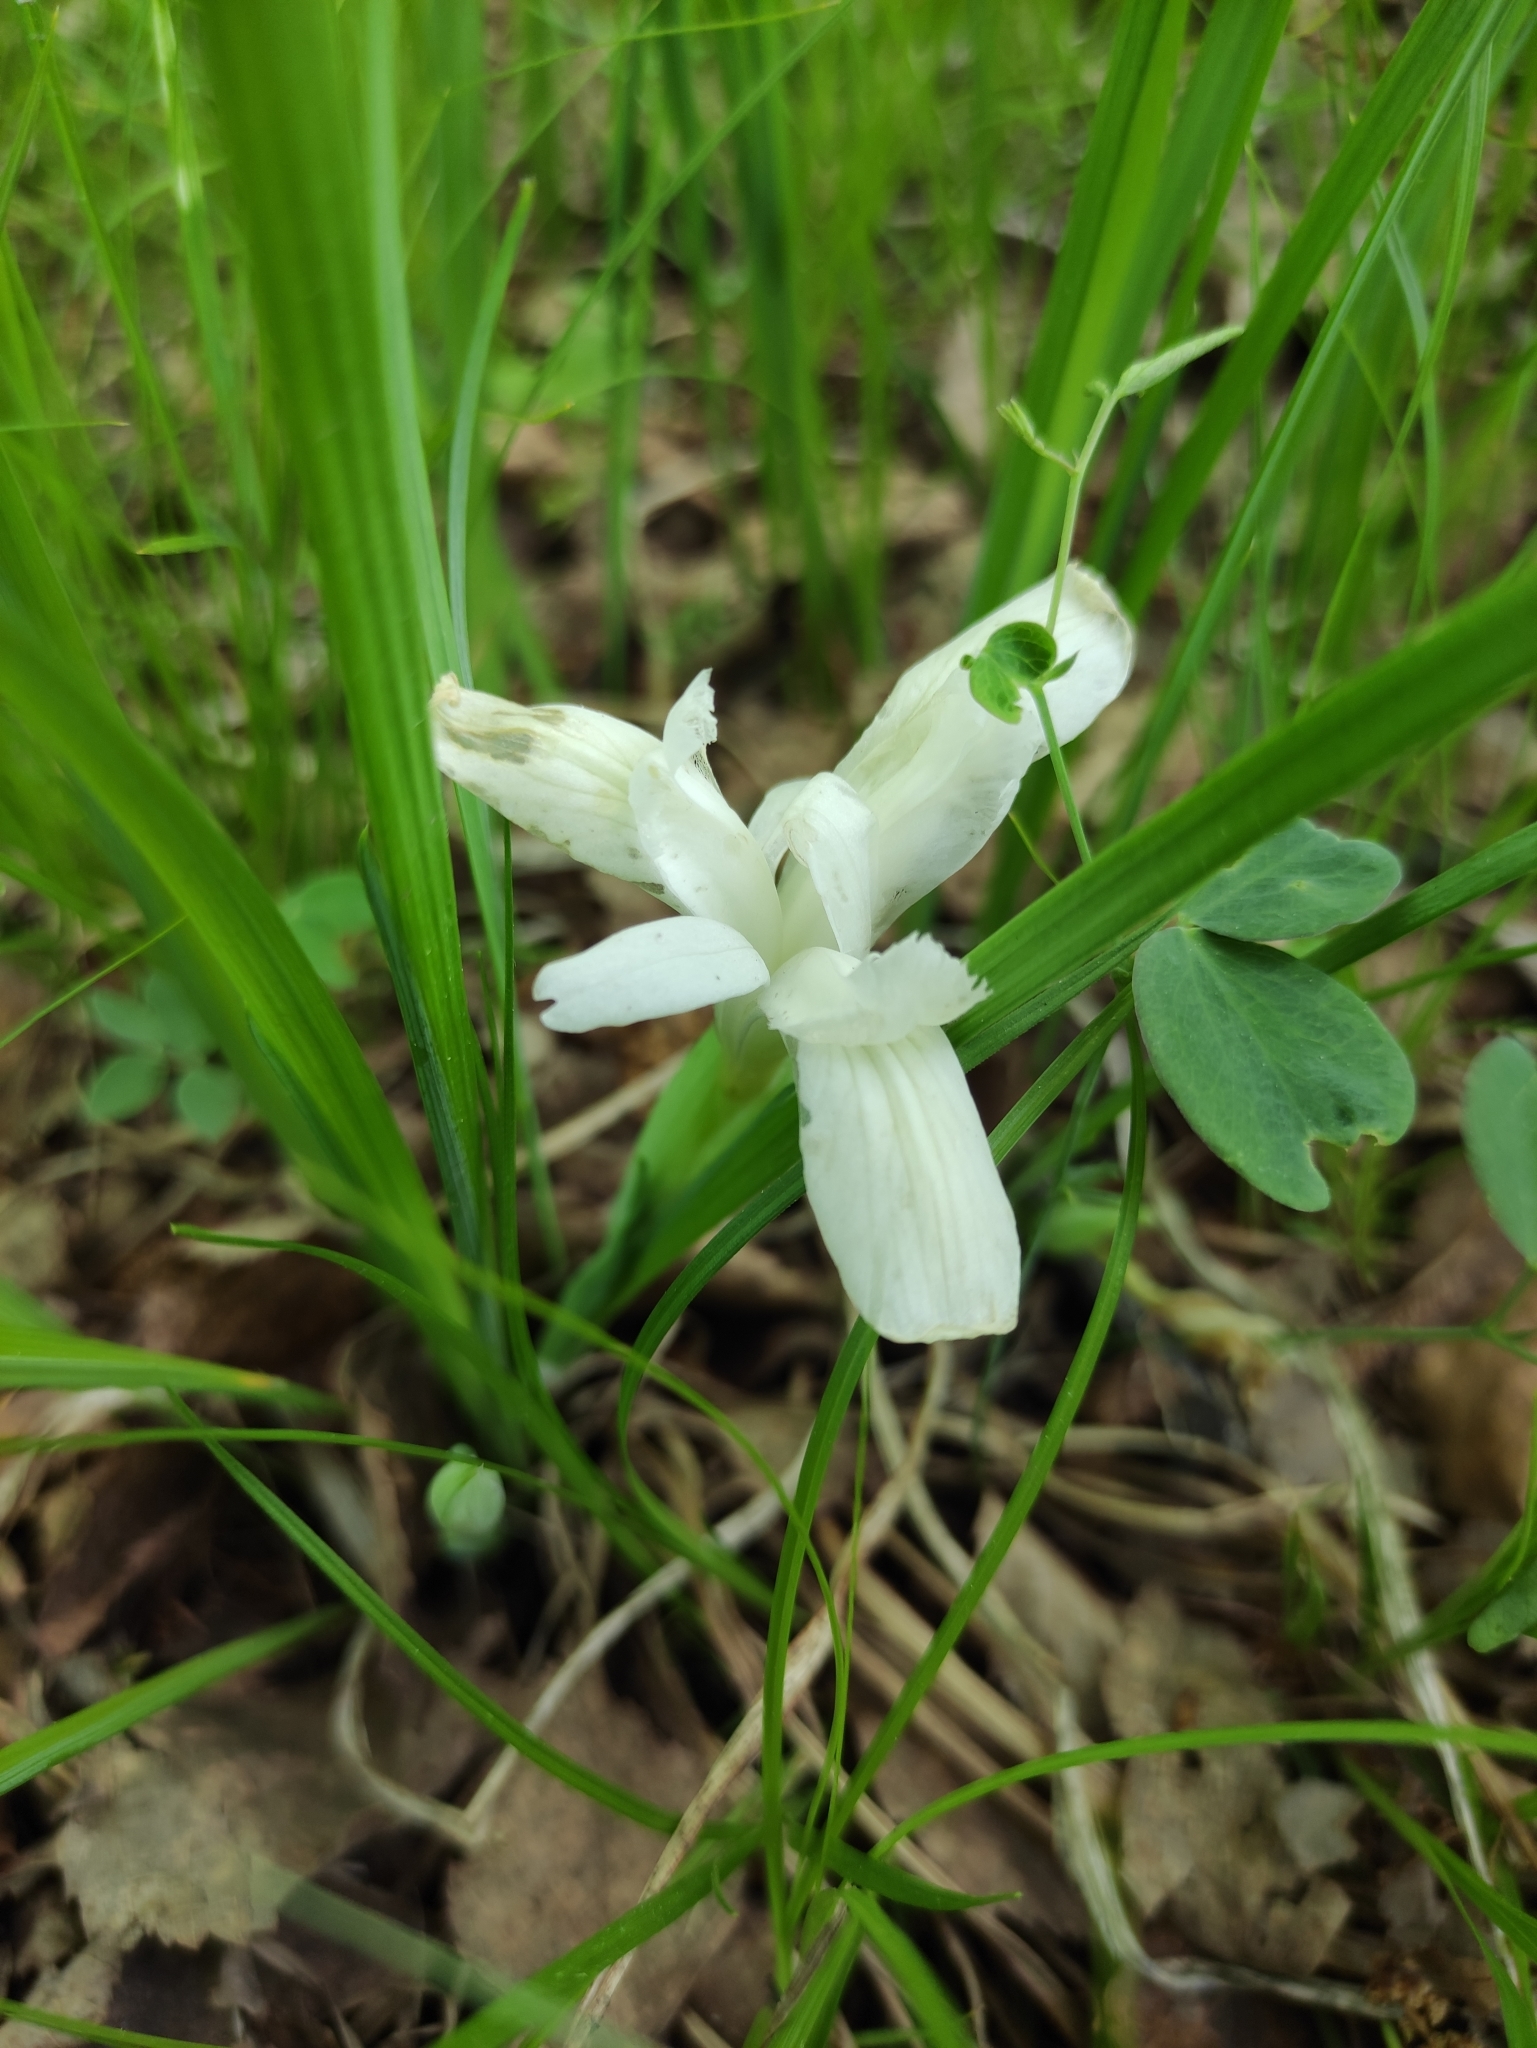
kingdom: Plantae
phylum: Tracheophyta
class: Liliopsida
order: Asparagales
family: Iridaceae
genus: Iris
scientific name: Iris ruthenica
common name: Purple-bract iris
